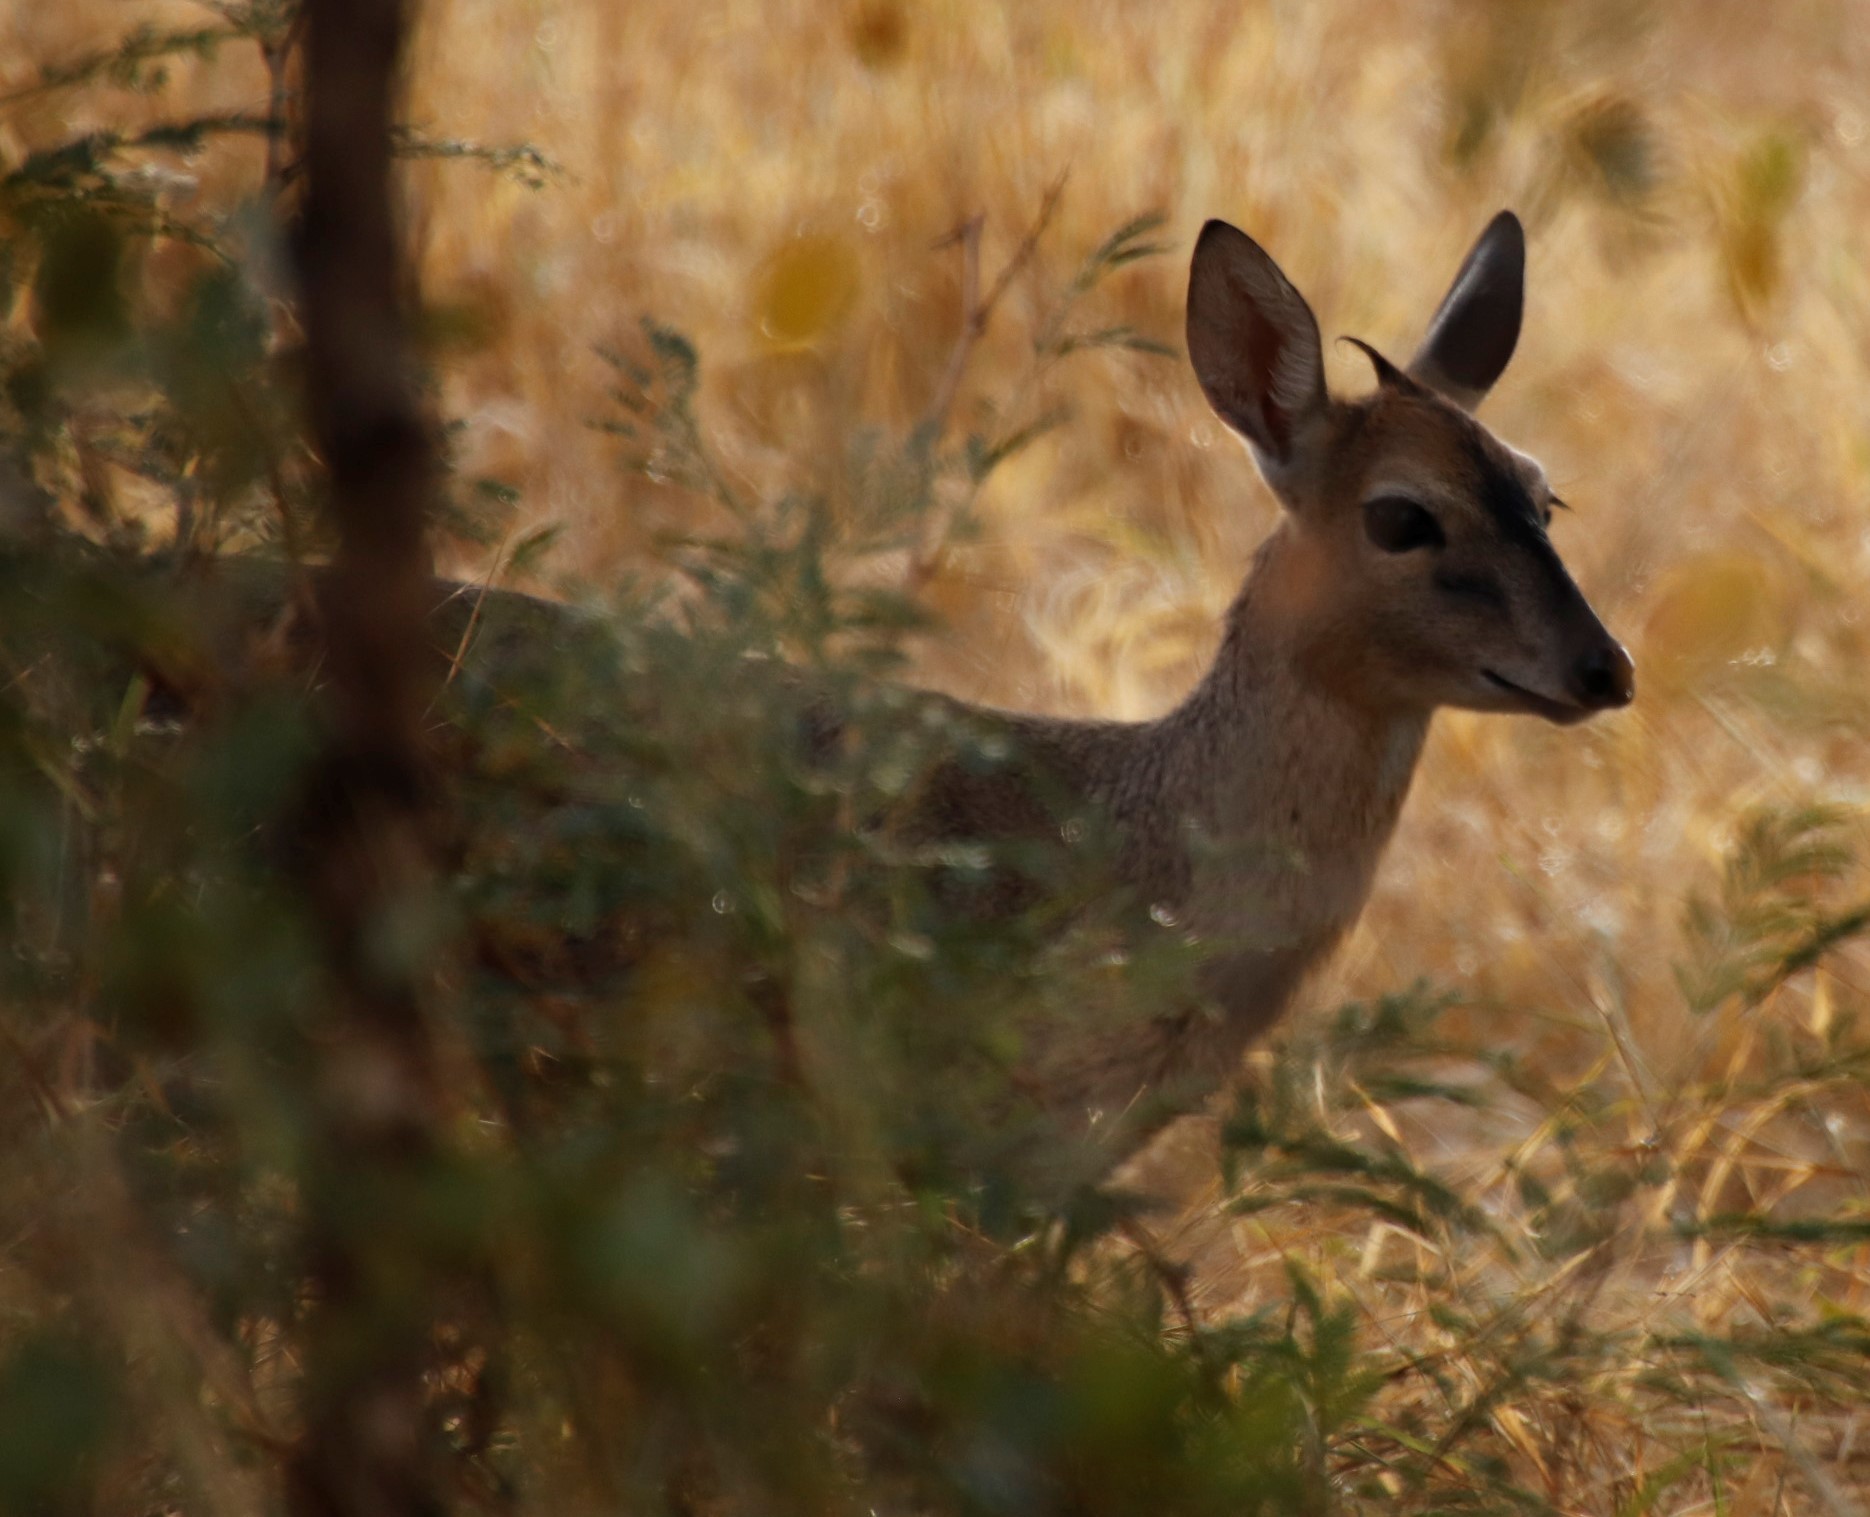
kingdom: Animalia
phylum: Chordata
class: Mammalia
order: Artiodactyla
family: Bovidae
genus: Sylvicapra
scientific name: Sylvicapra grimmia
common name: Bush duiker
